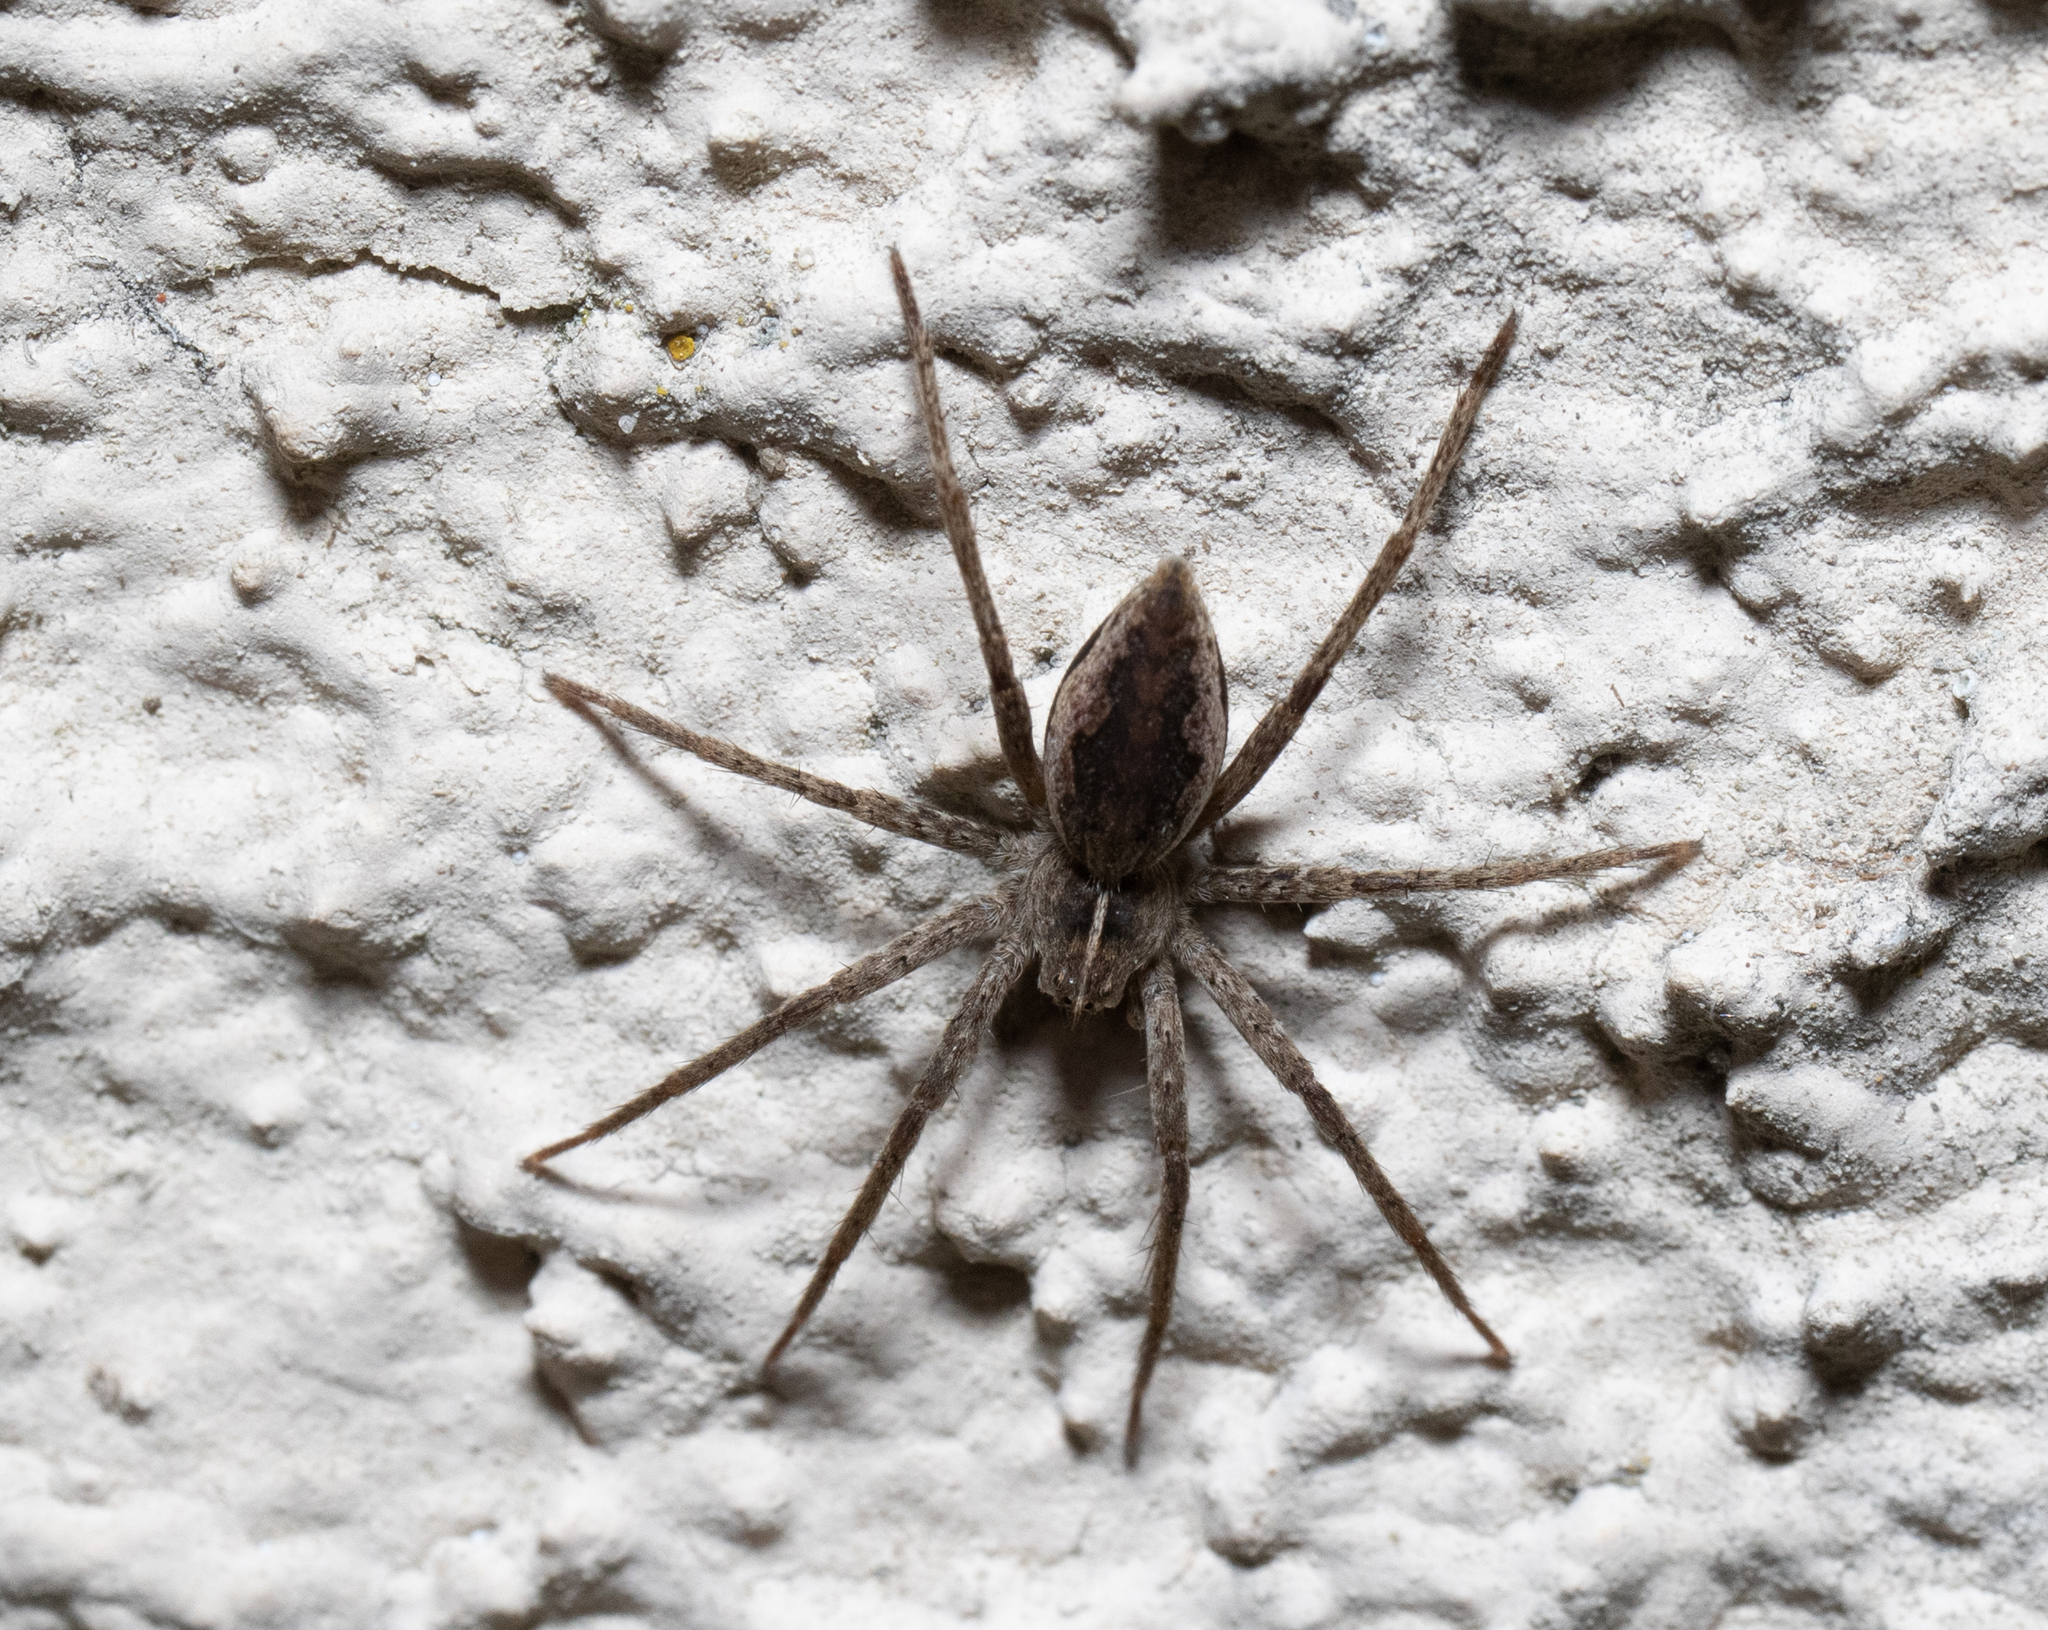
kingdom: Animalia
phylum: Arthropoda
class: Arachnida
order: Araneae
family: Pisauridae
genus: Pisaura
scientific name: Pisaura mirabilis
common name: Tent spider
